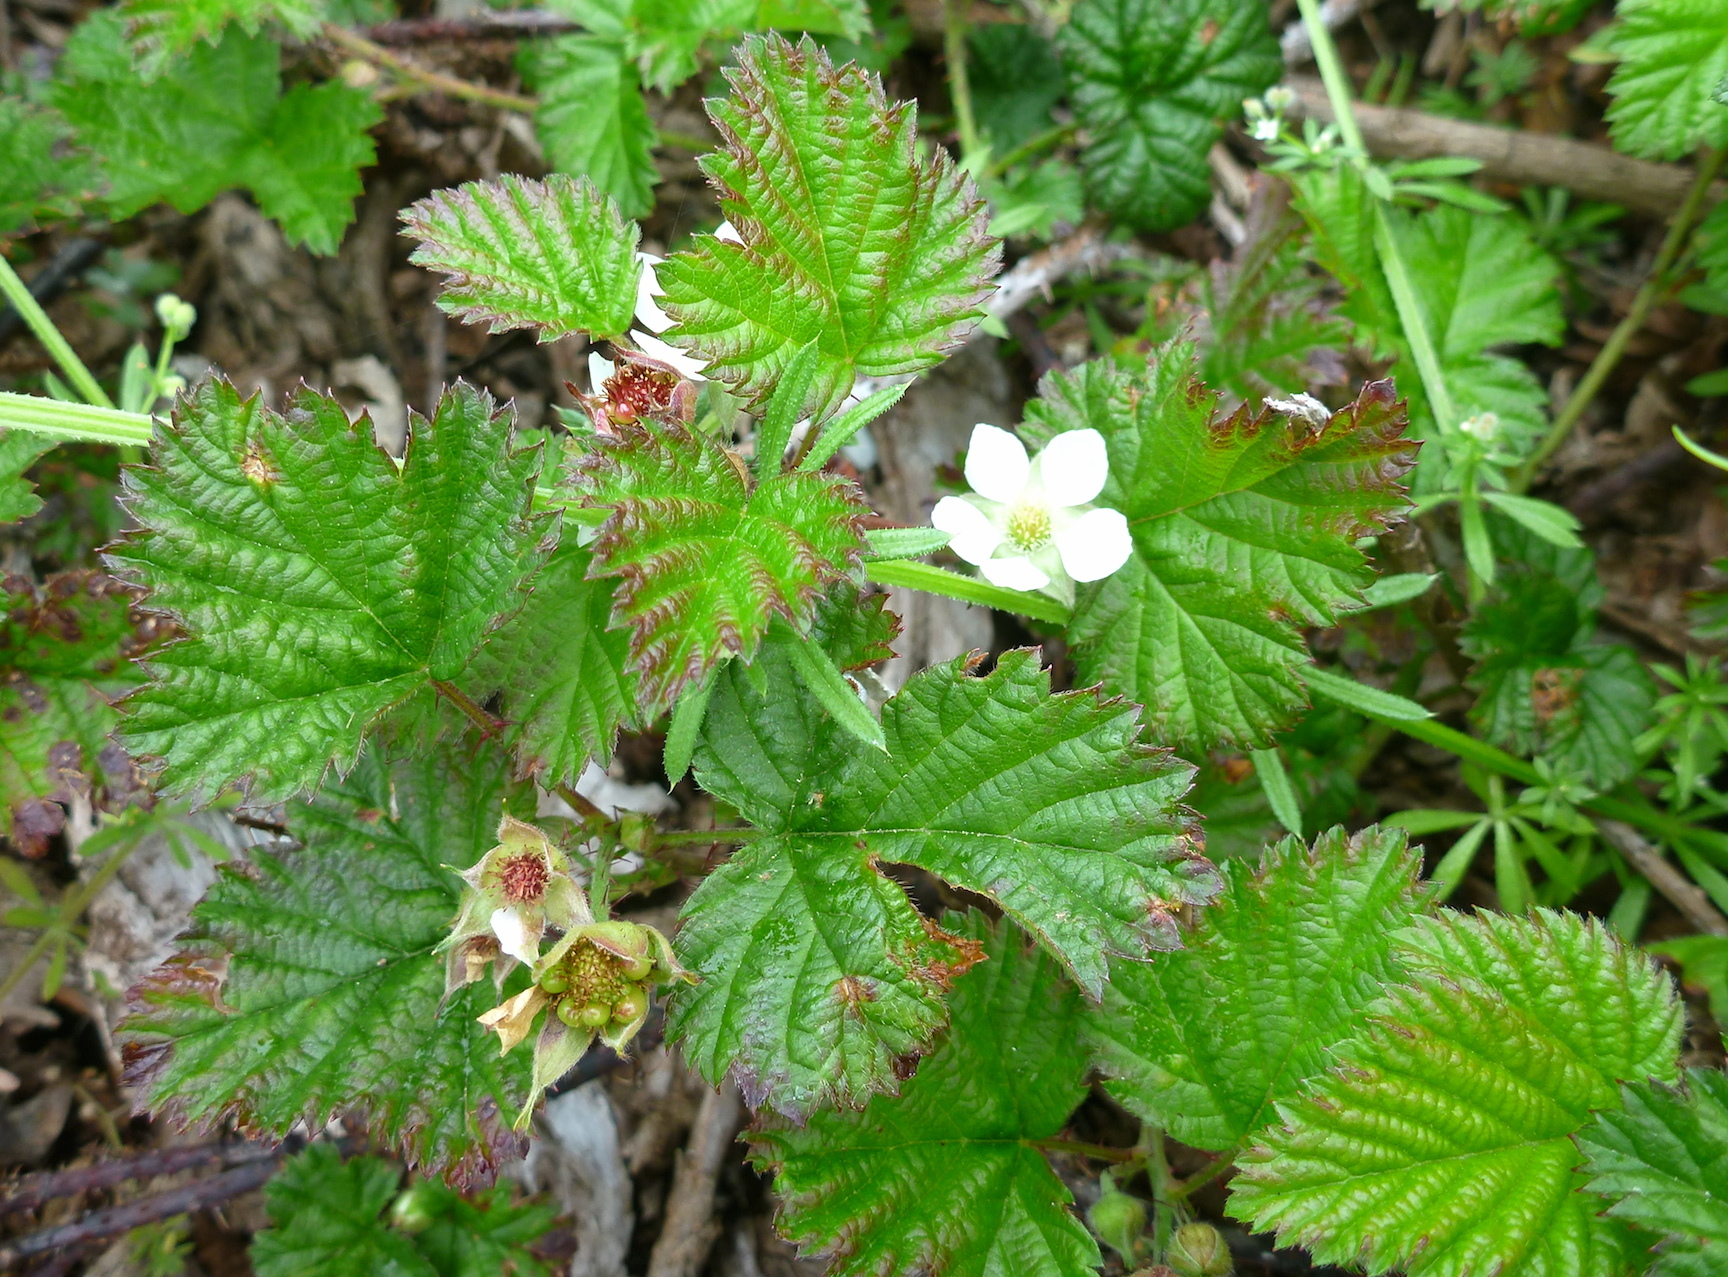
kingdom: Plantae
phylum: Tracheophyta
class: Magnoliopsida
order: Rosales
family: Rosaceae
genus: Rubus
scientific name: Rubus ursinus
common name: Pacific blackberry
